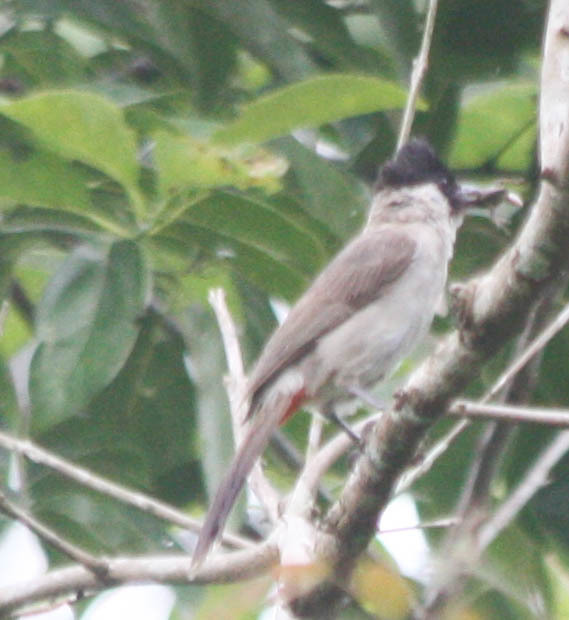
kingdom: Animalia
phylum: Chordata
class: Aves
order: Passeriformes
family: Pycnonotidae
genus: Pycnonotus
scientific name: Pycnonotus aurigaster
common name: Sooty-headed bulbul
